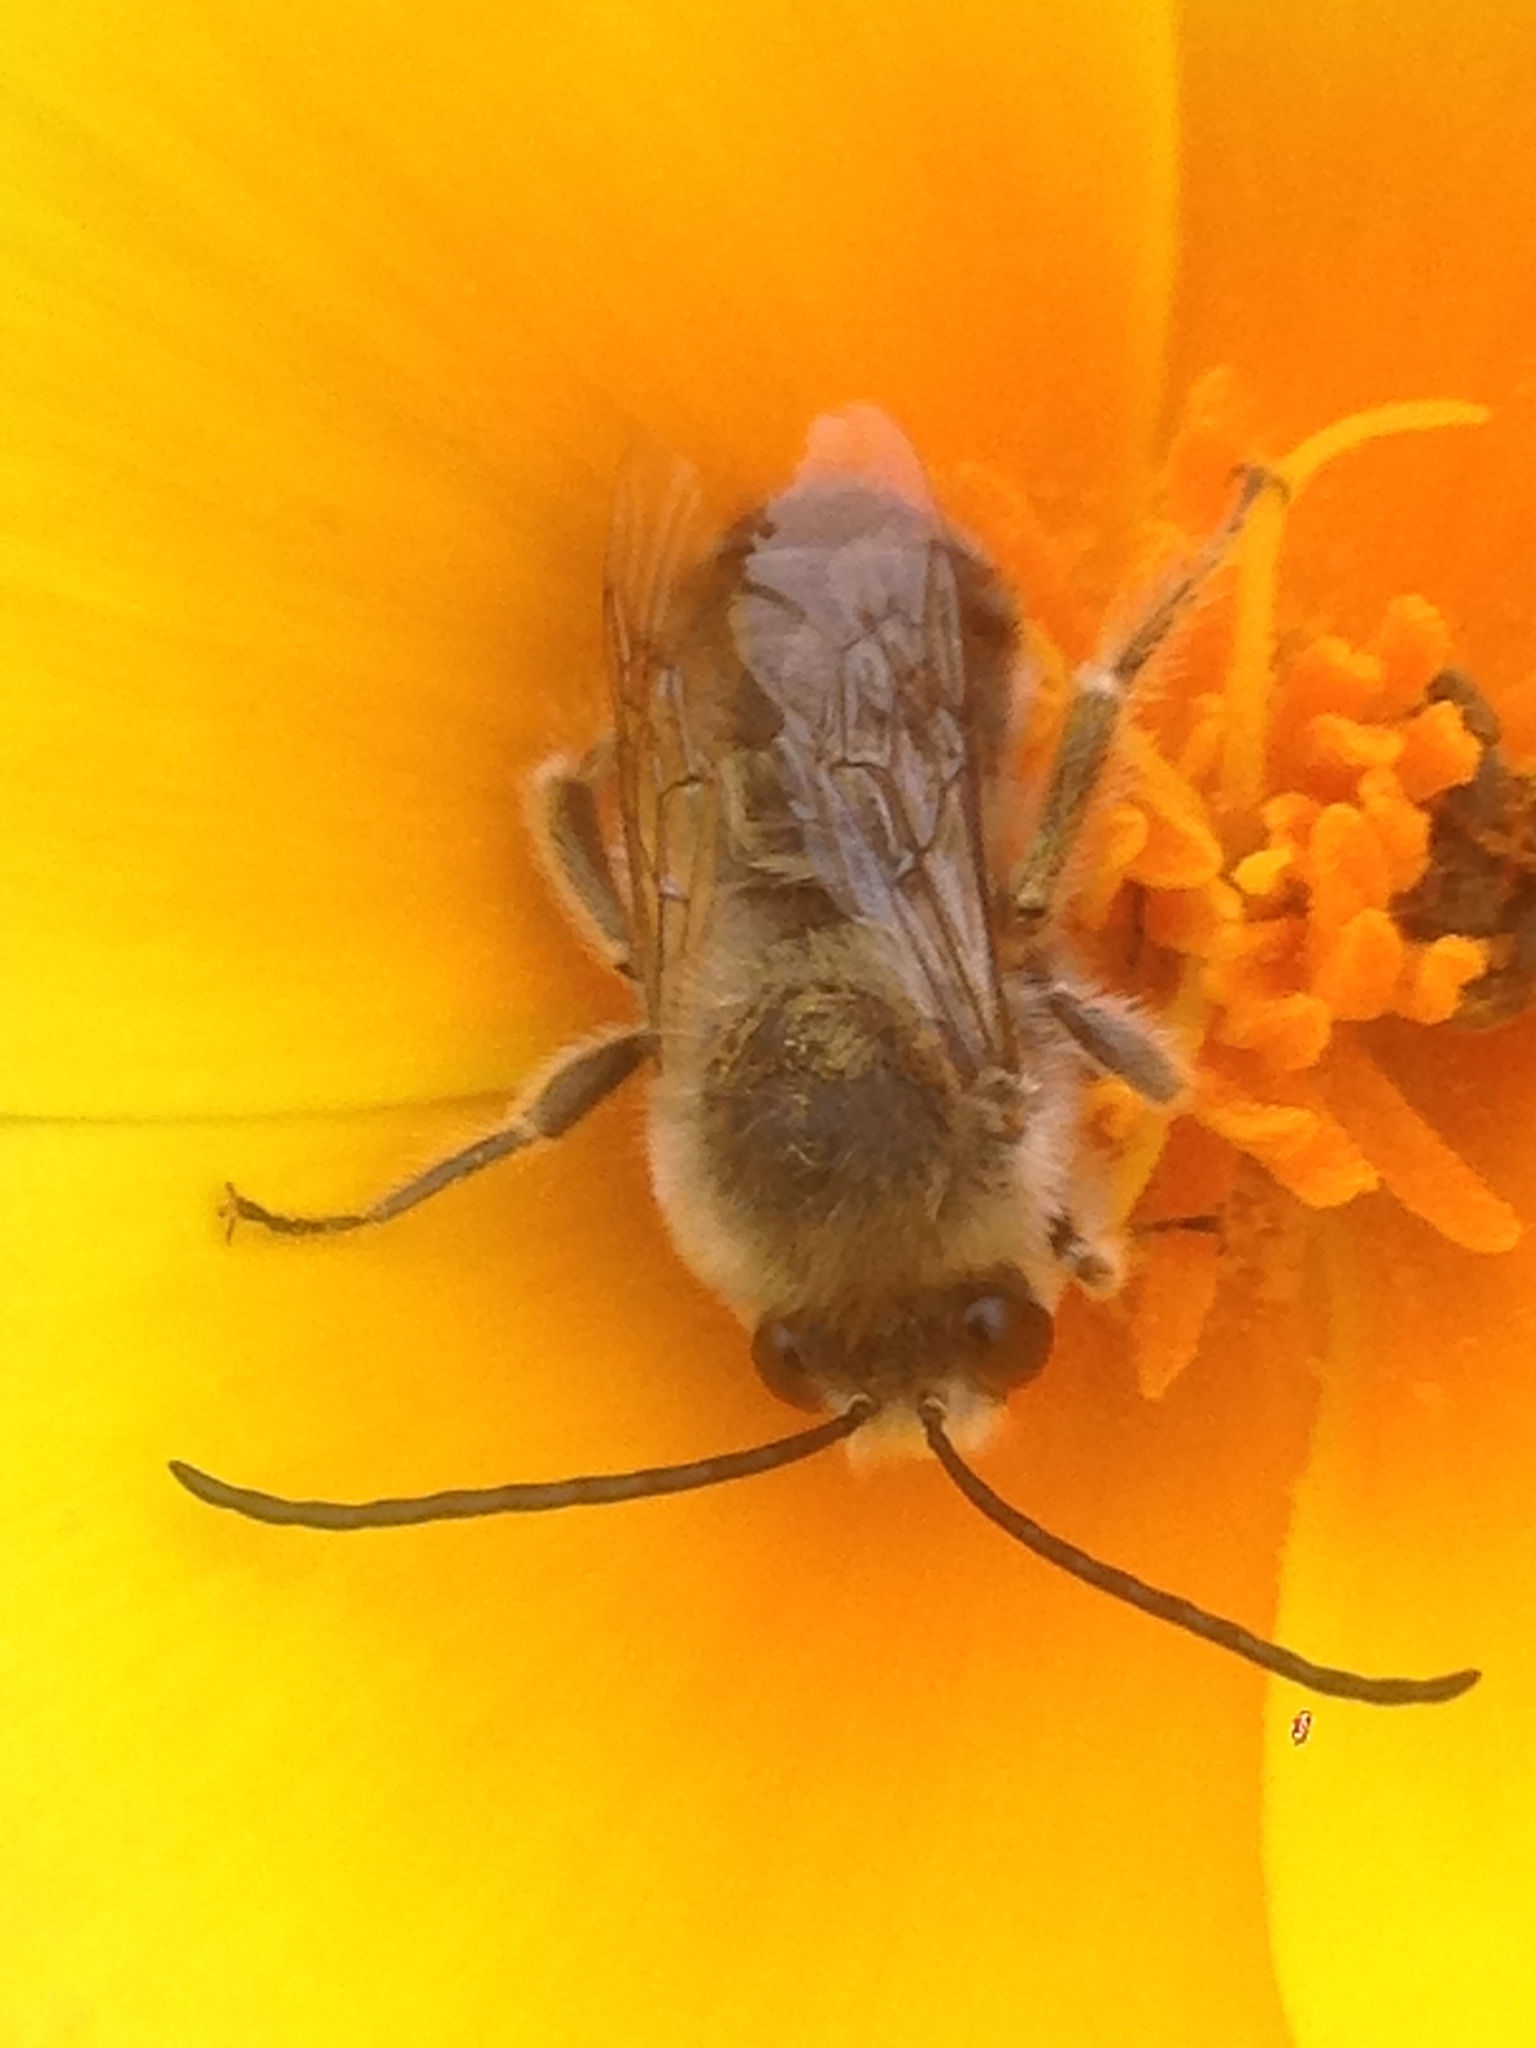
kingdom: Animalia
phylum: Arthropoda
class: Insecta
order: Hymenoptera
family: Apidae
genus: Apidae
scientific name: Apidae
